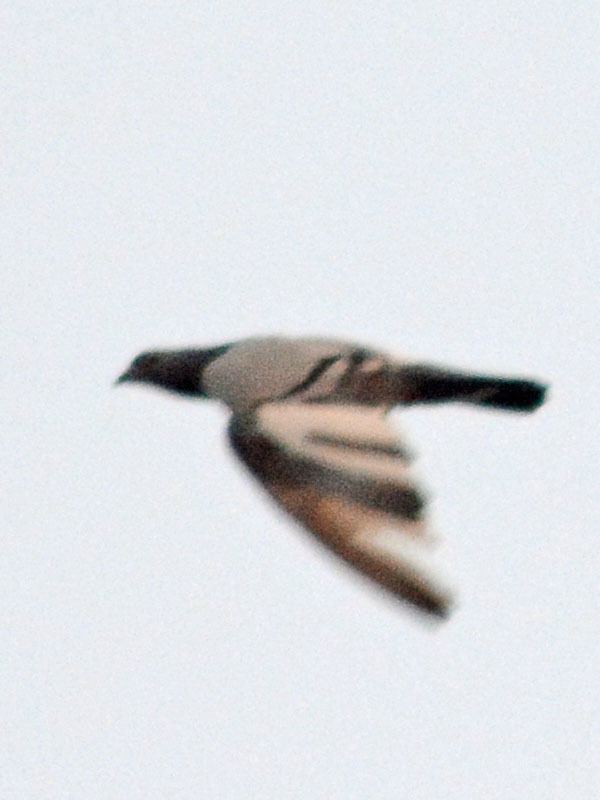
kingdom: Animalia
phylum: Chordata
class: Aves
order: Columbiformes
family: Columbidae
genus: Columba
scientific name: Columba livia
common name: Rock pigeon
